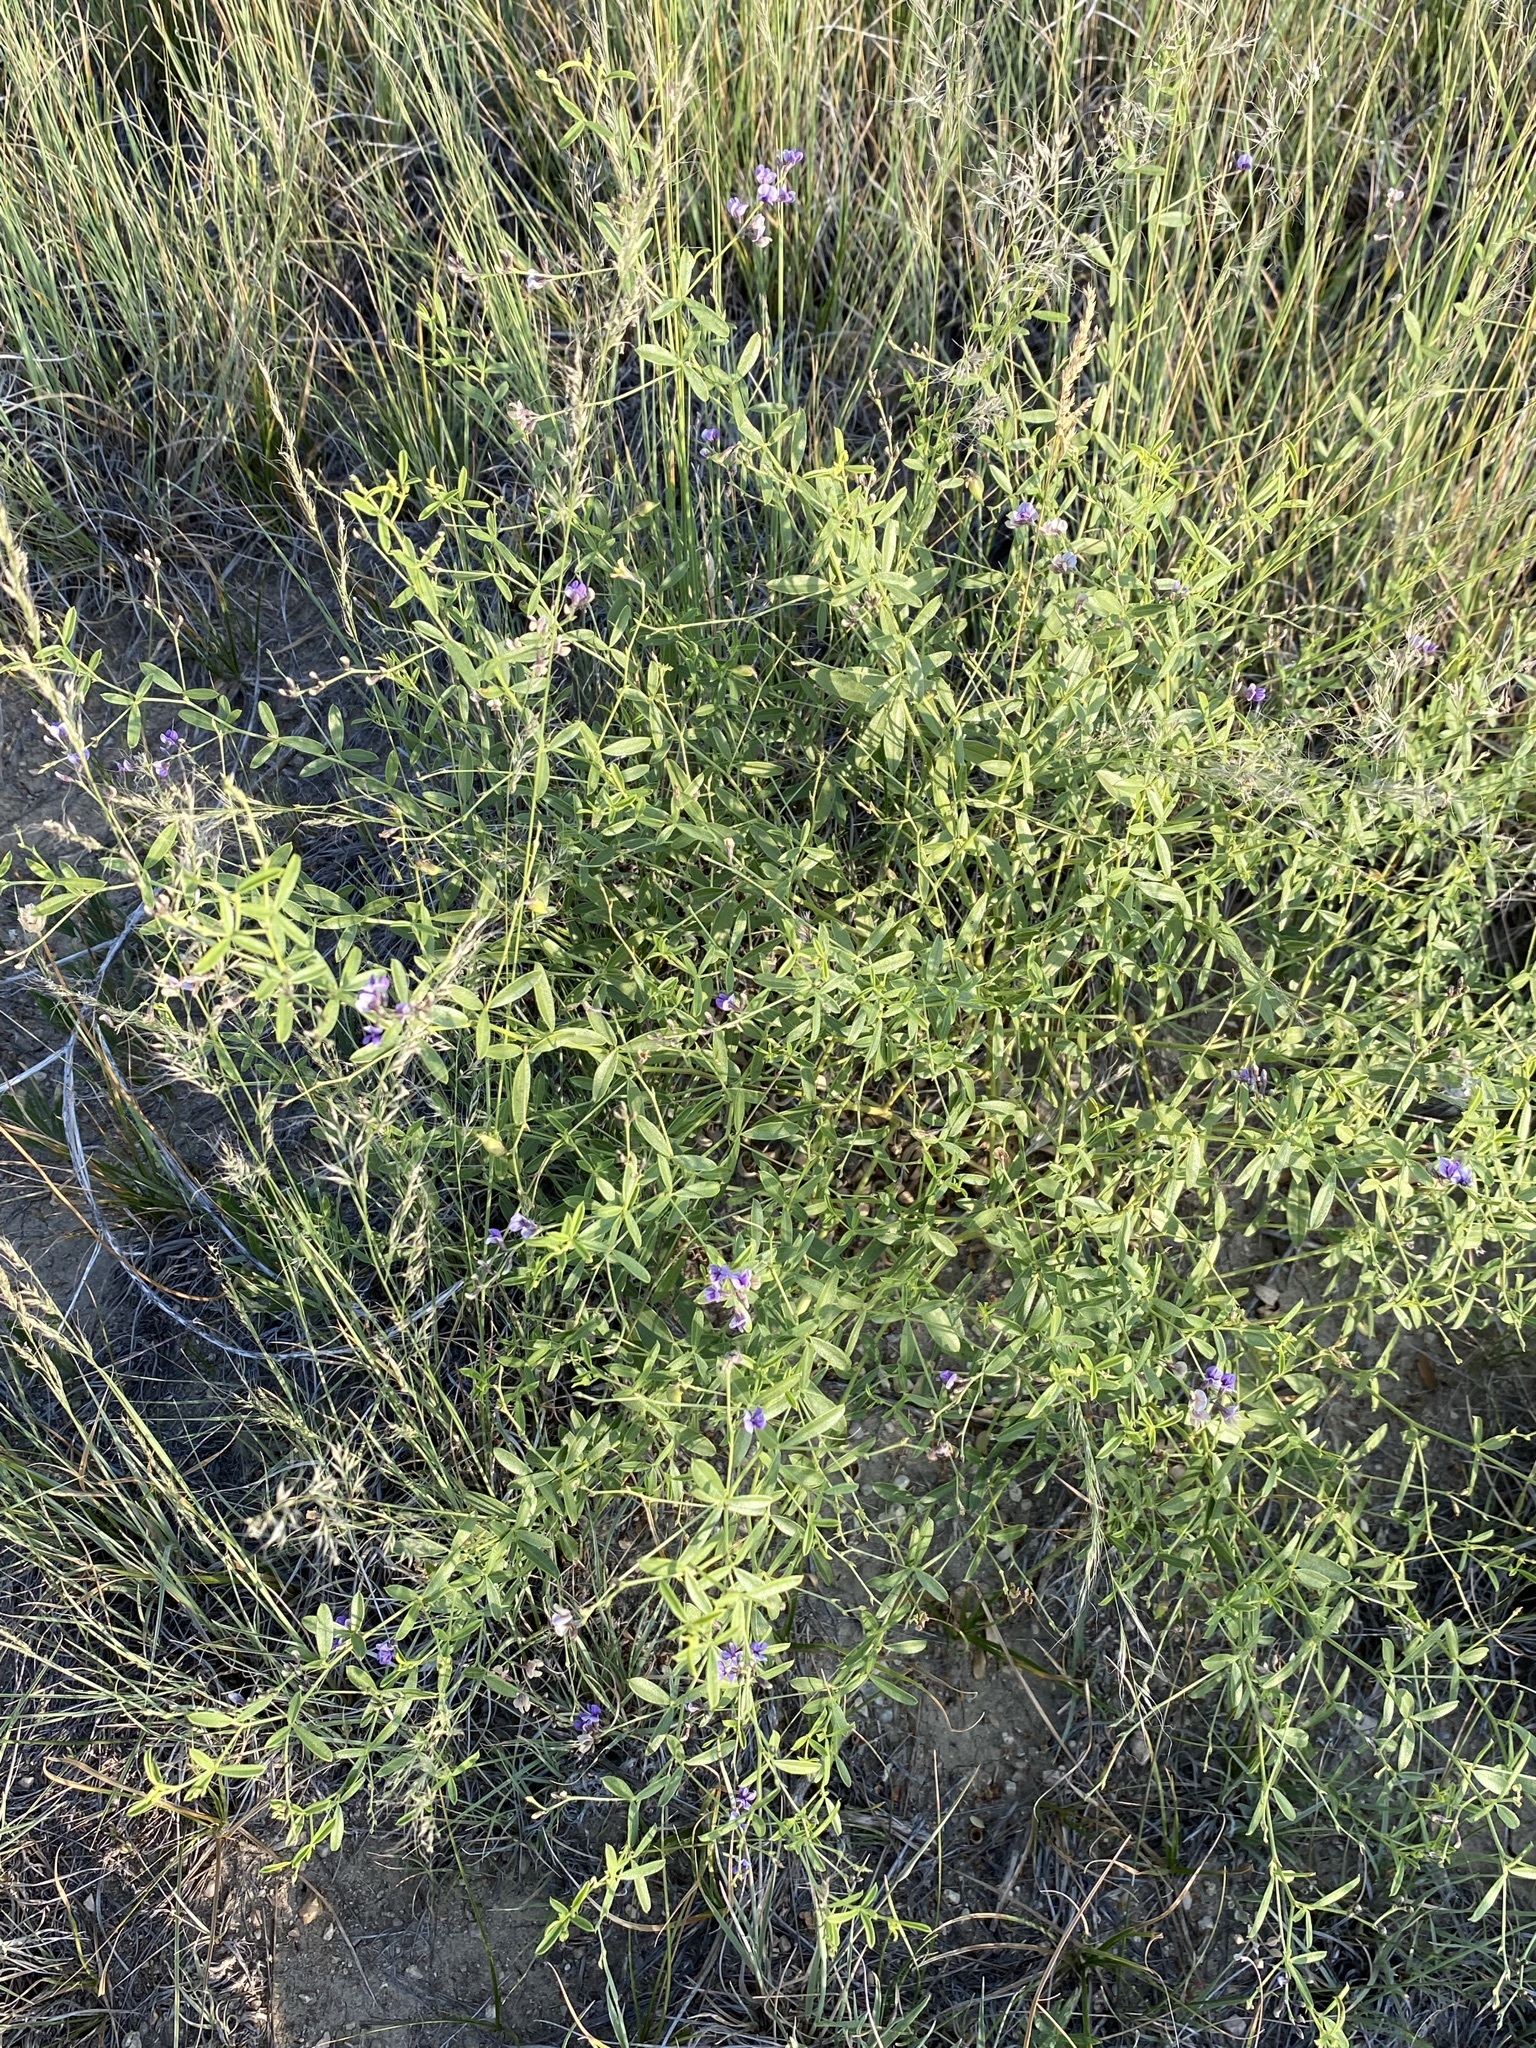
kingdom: Plantae
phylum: Tracheophyta
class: Magnoliopsida
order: Fabales
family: Fabaceae
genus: Pediomelum
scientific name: Pediomelum tenuiflorum
